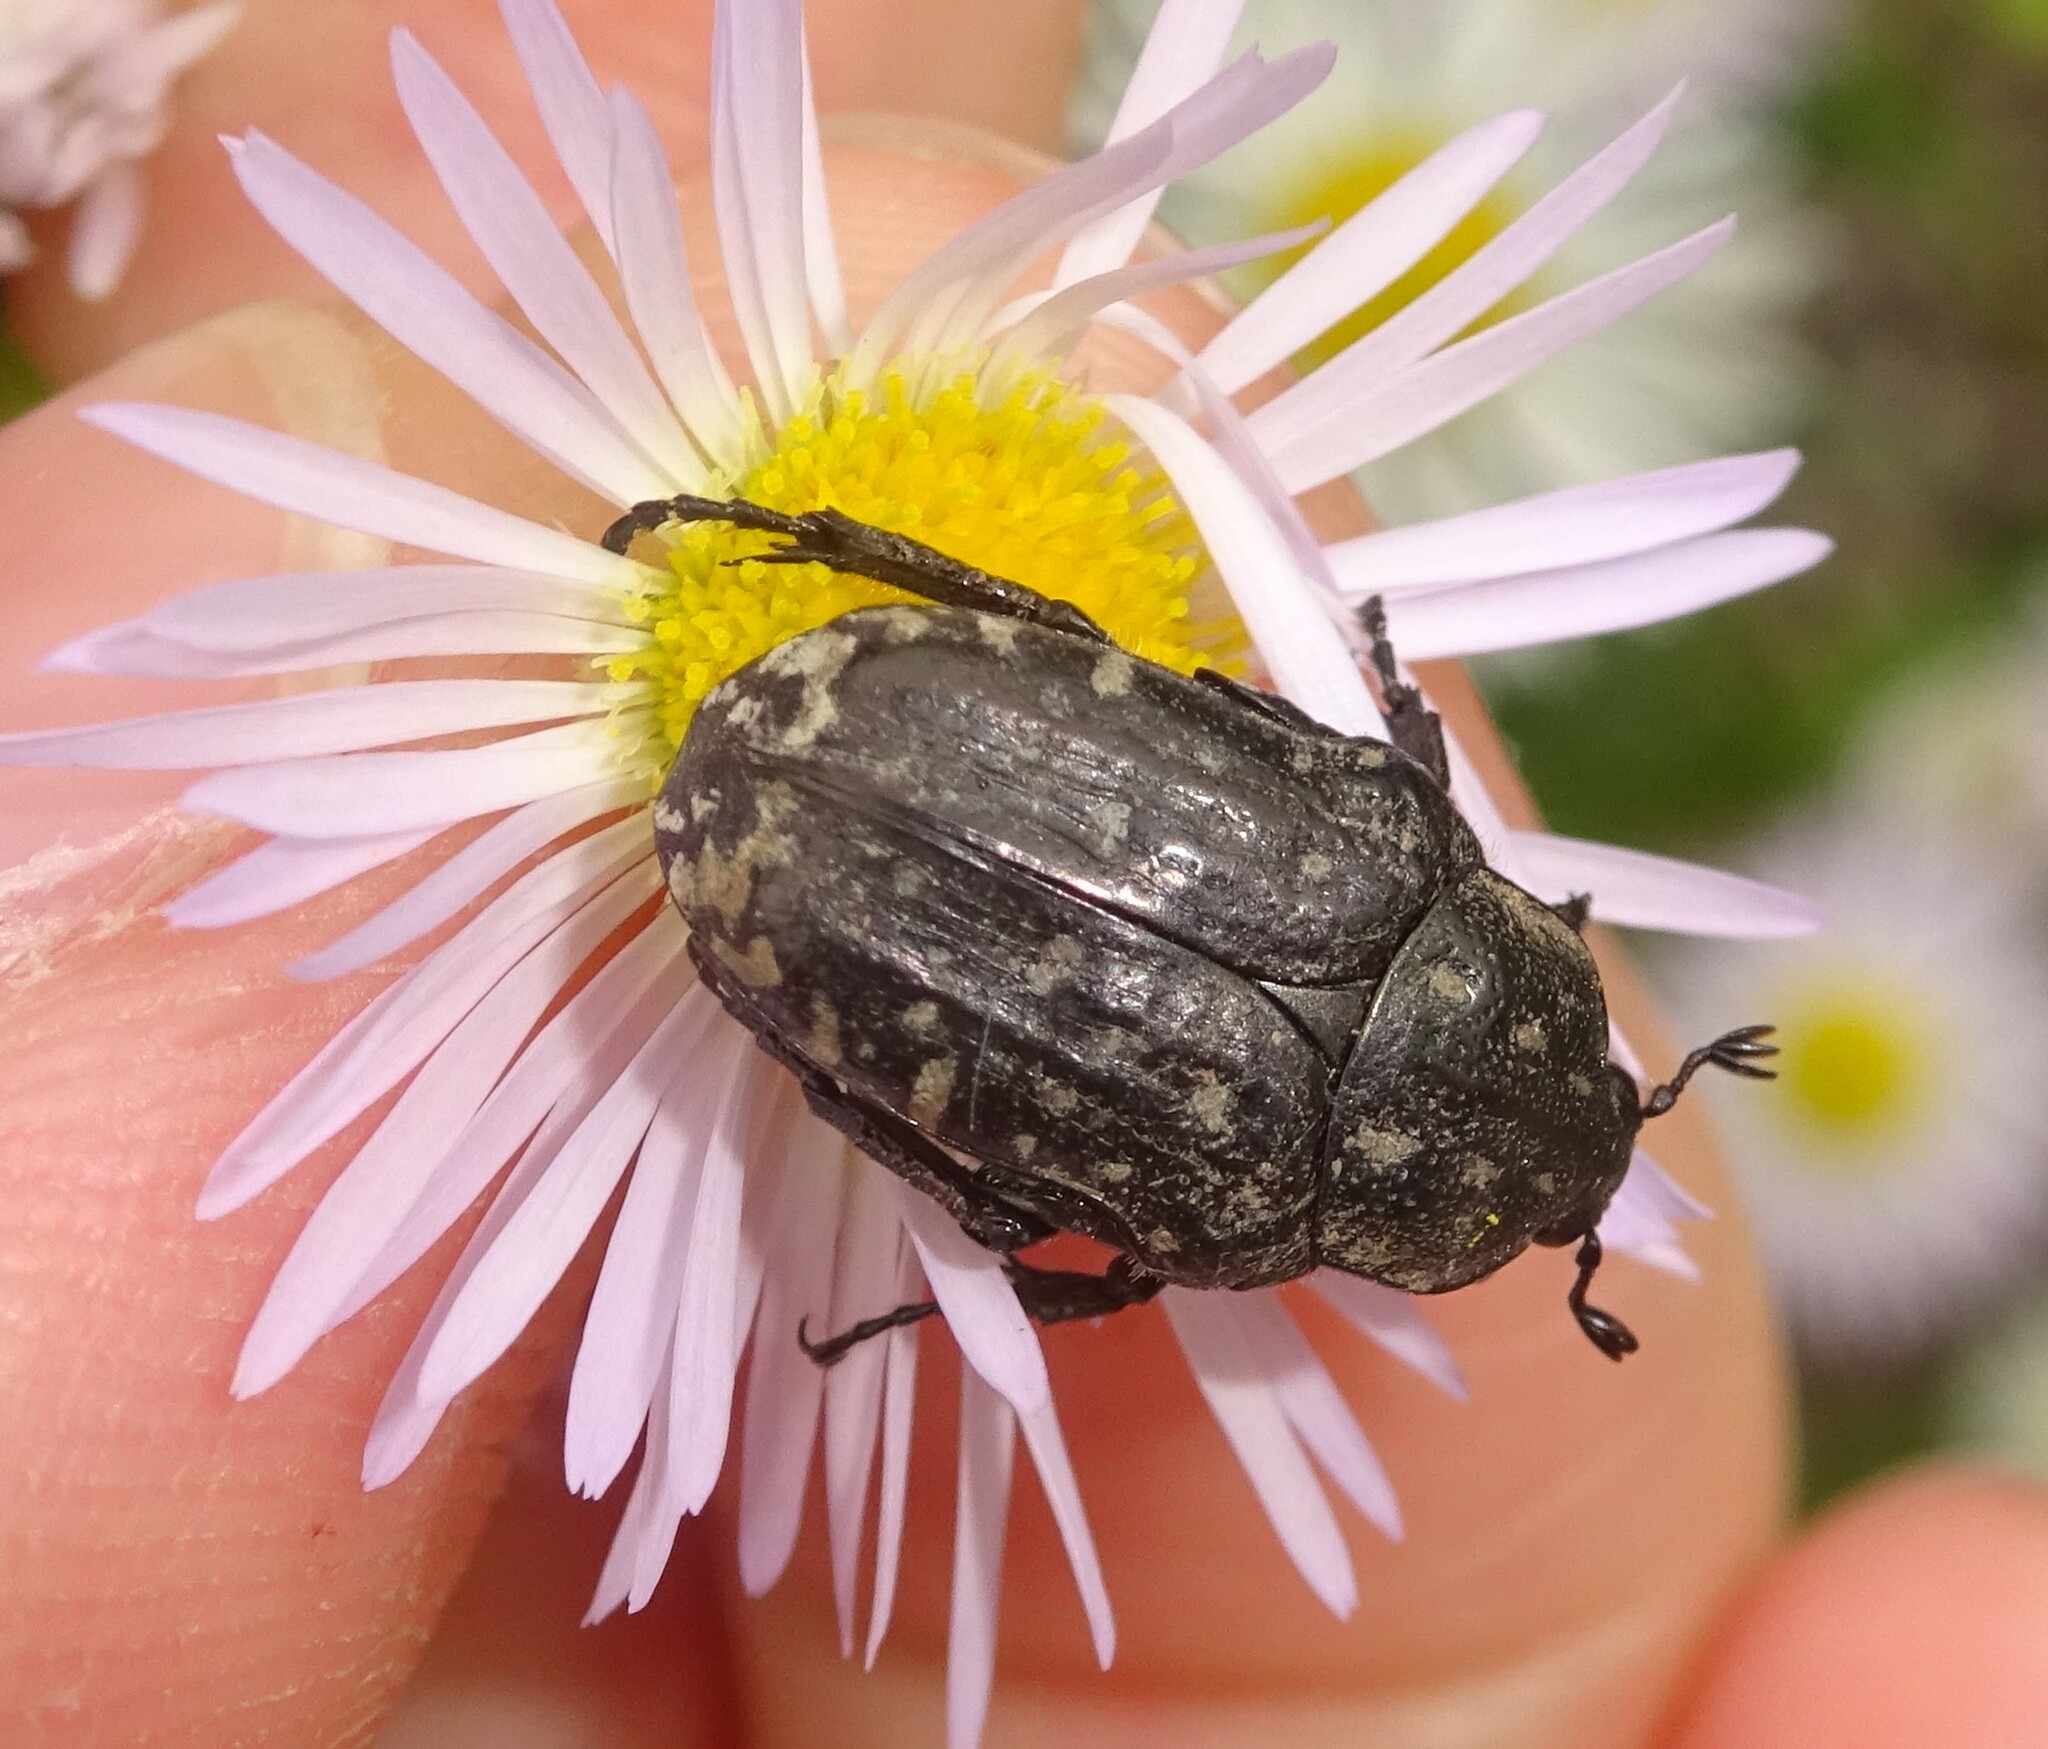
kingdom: Animalia
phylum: Arthropoda
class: Insecta
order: Coleoptera
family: Scarabaeidae
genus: Oxythyrea
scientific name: Oxythyrea funesta
